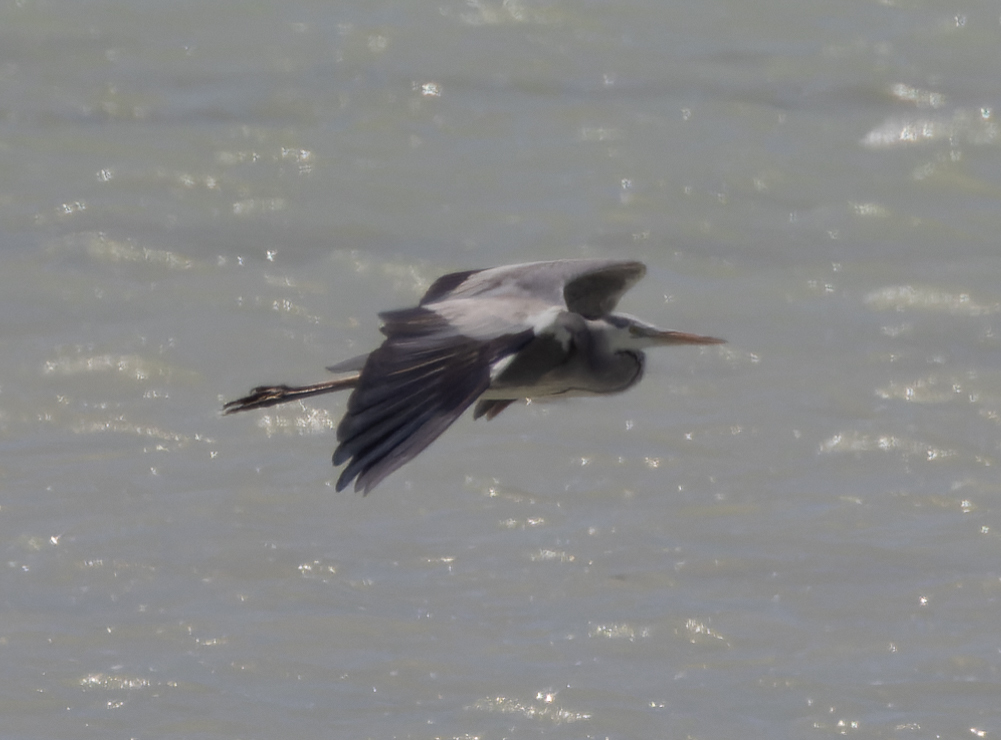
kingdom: Animalia
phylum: Chordata
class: Aves
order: Pelecaniformes
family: Ardeidae
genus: Ardea
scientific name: Ardea cinerea
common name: Grey heron
